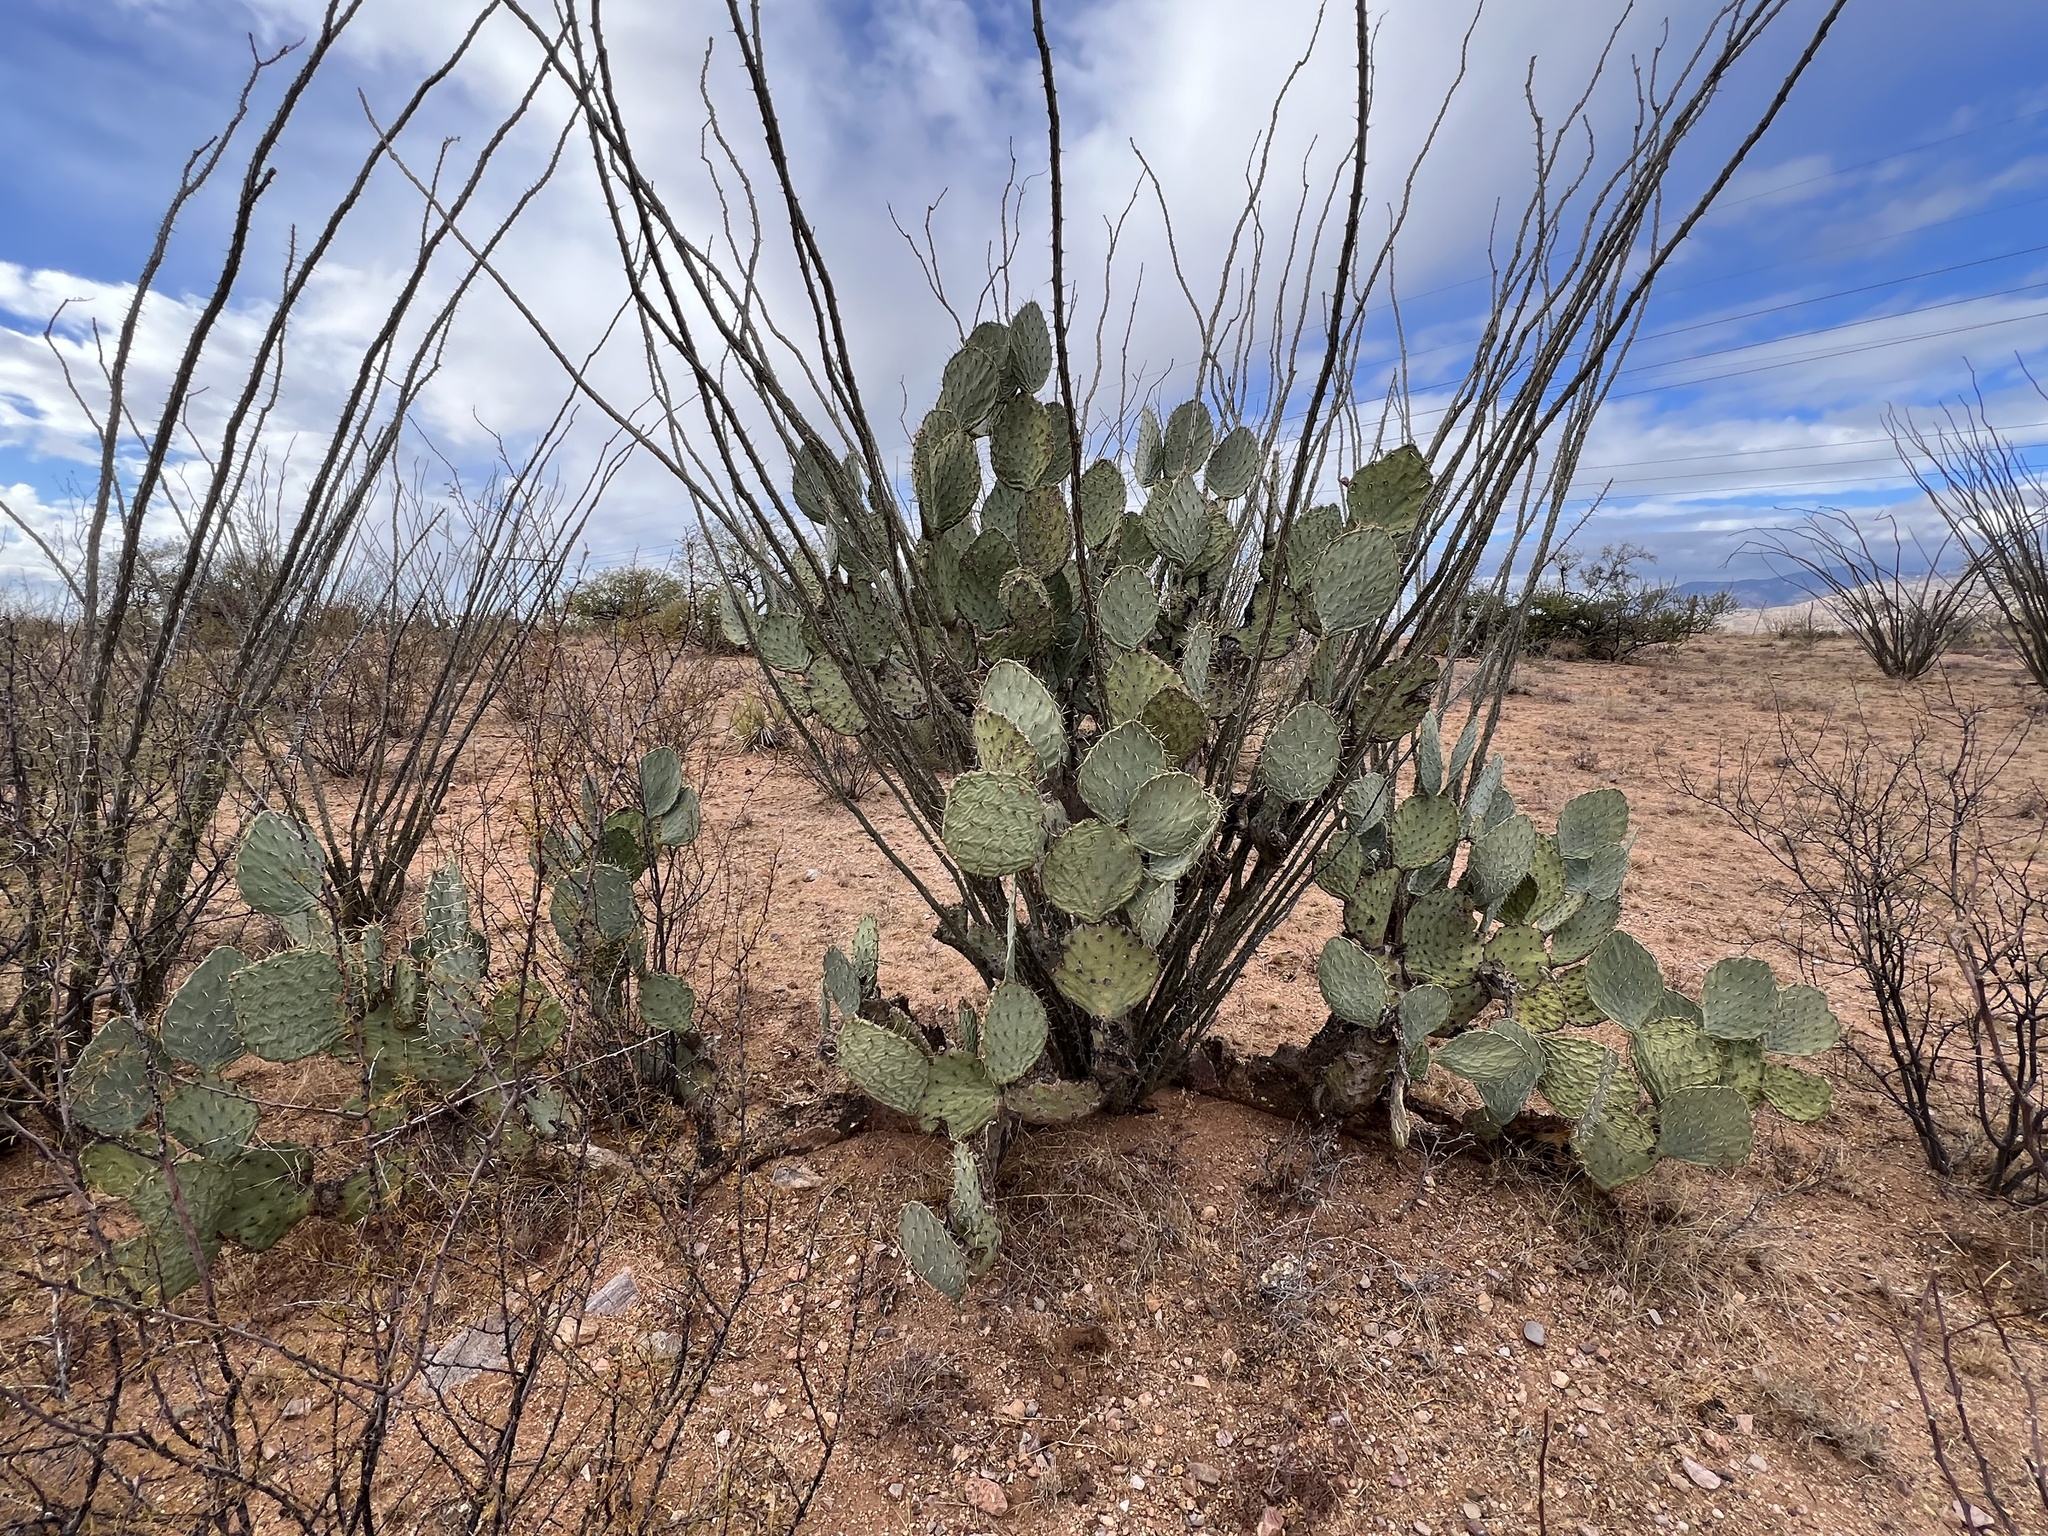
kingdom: Plantae
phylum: Tracheophyta
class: Magnoliopsida
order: Caryophyllales
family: Cactaceae
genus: Opuntia
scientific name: Opuntia engelmannii
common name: Cactus-apple
